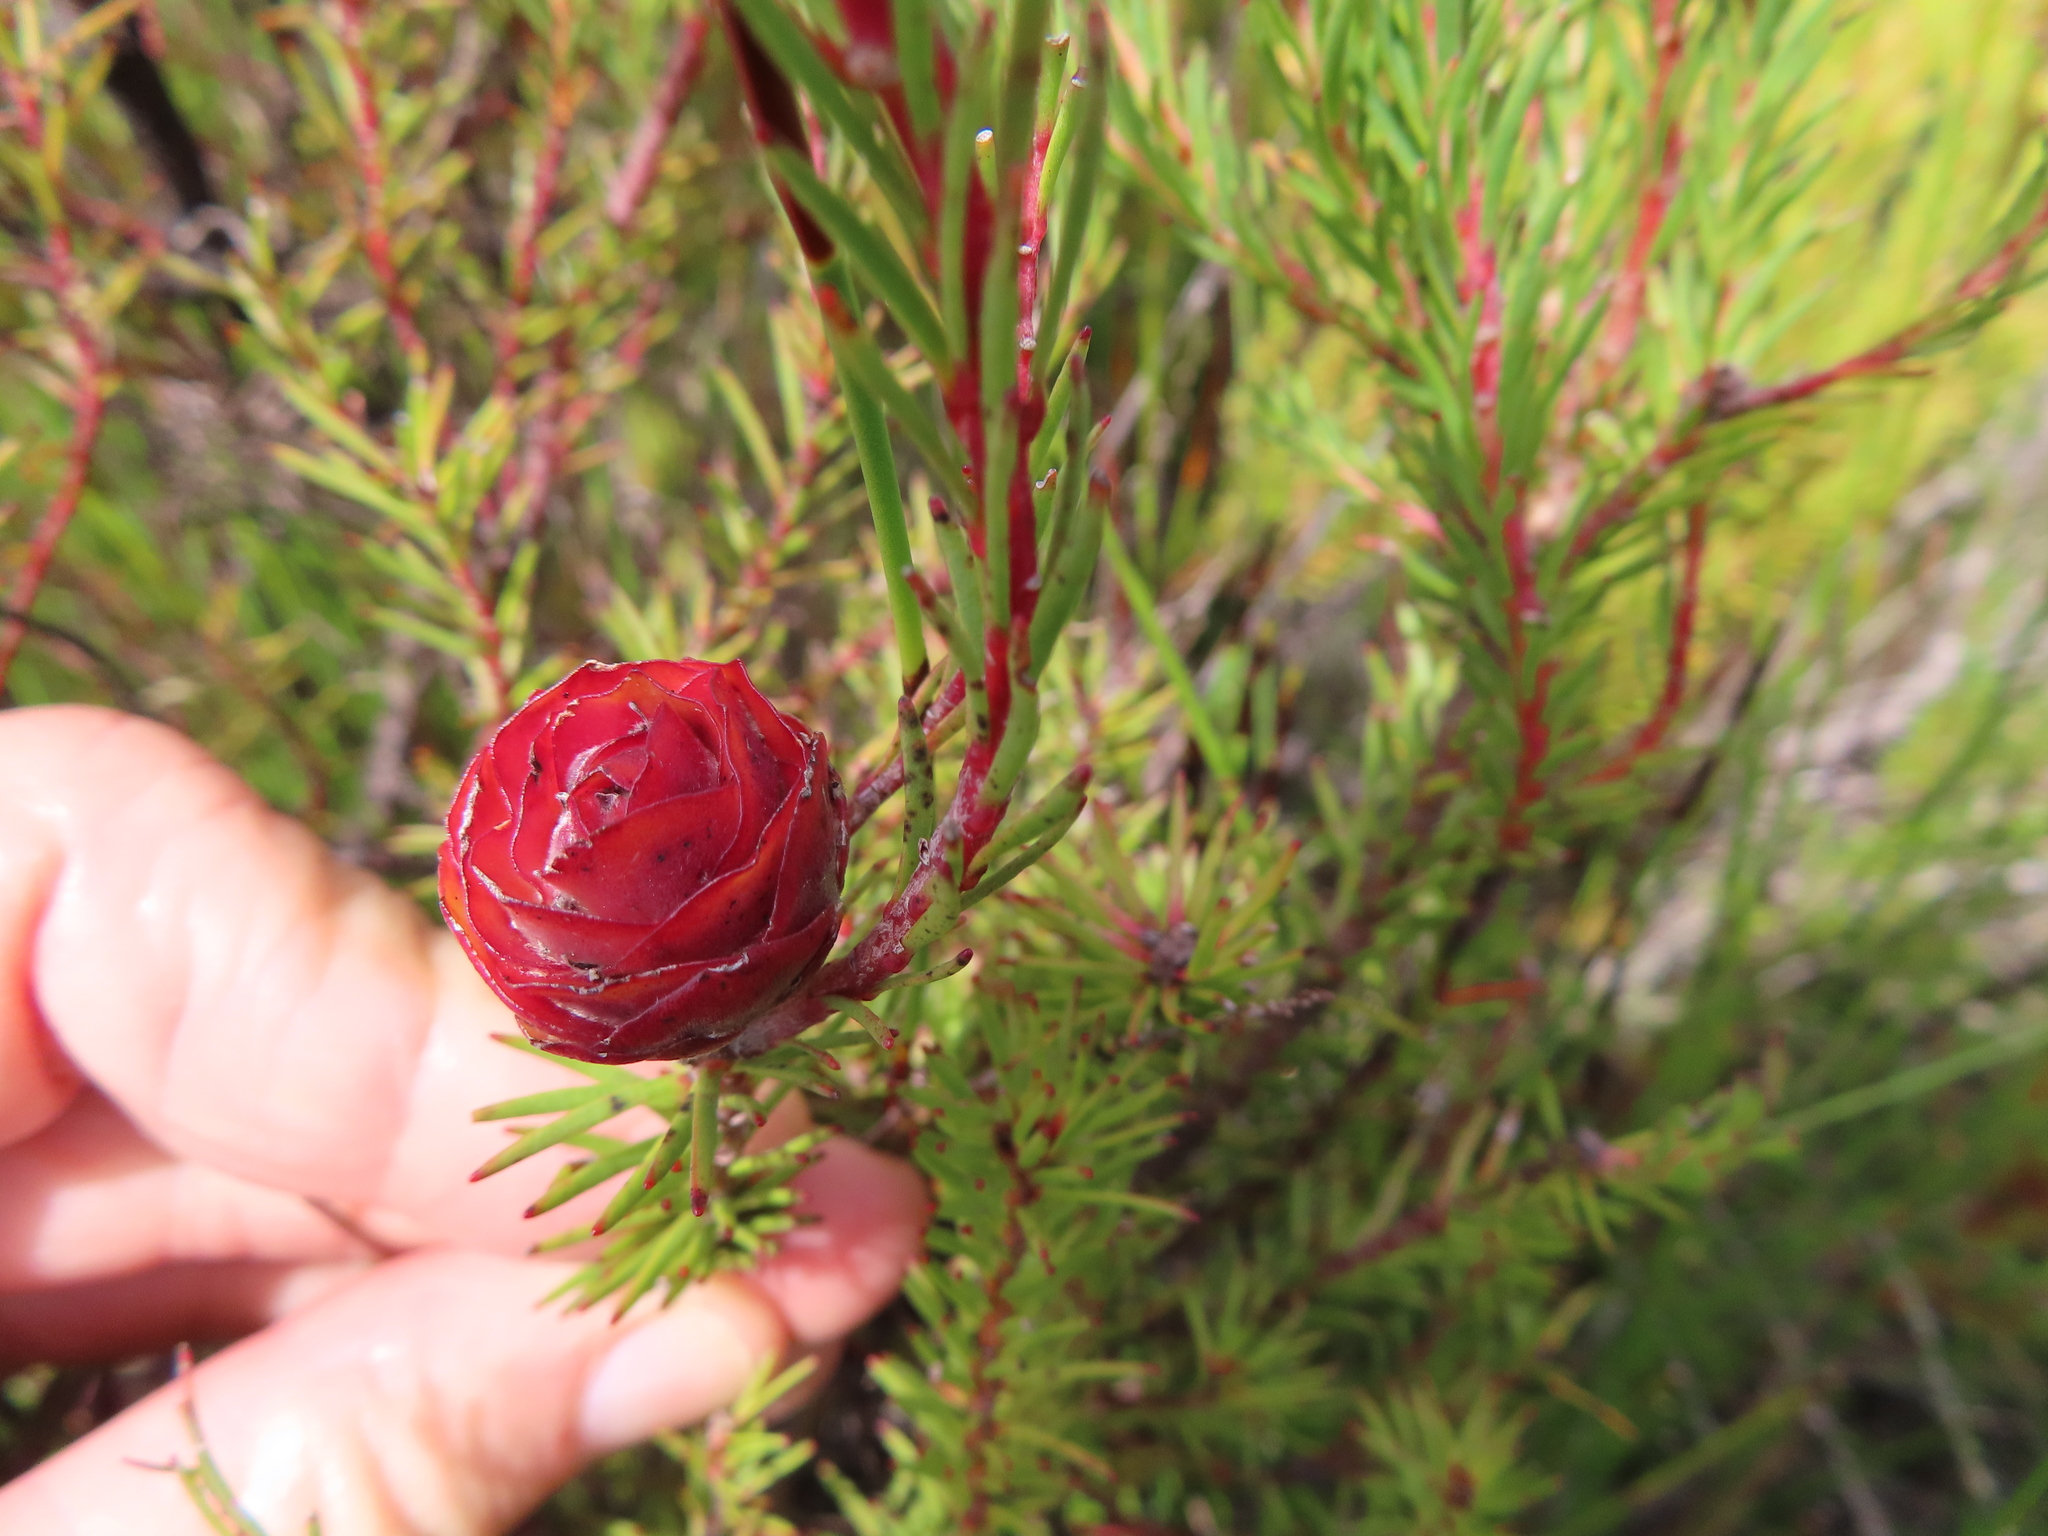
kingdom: Plantae
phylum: Tracheophyta
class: Magnoliopsida
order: Proteales
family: Proteaceae
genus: Leucadendron
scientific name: Leucadendron laxum
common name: Bredasdorp conebush
